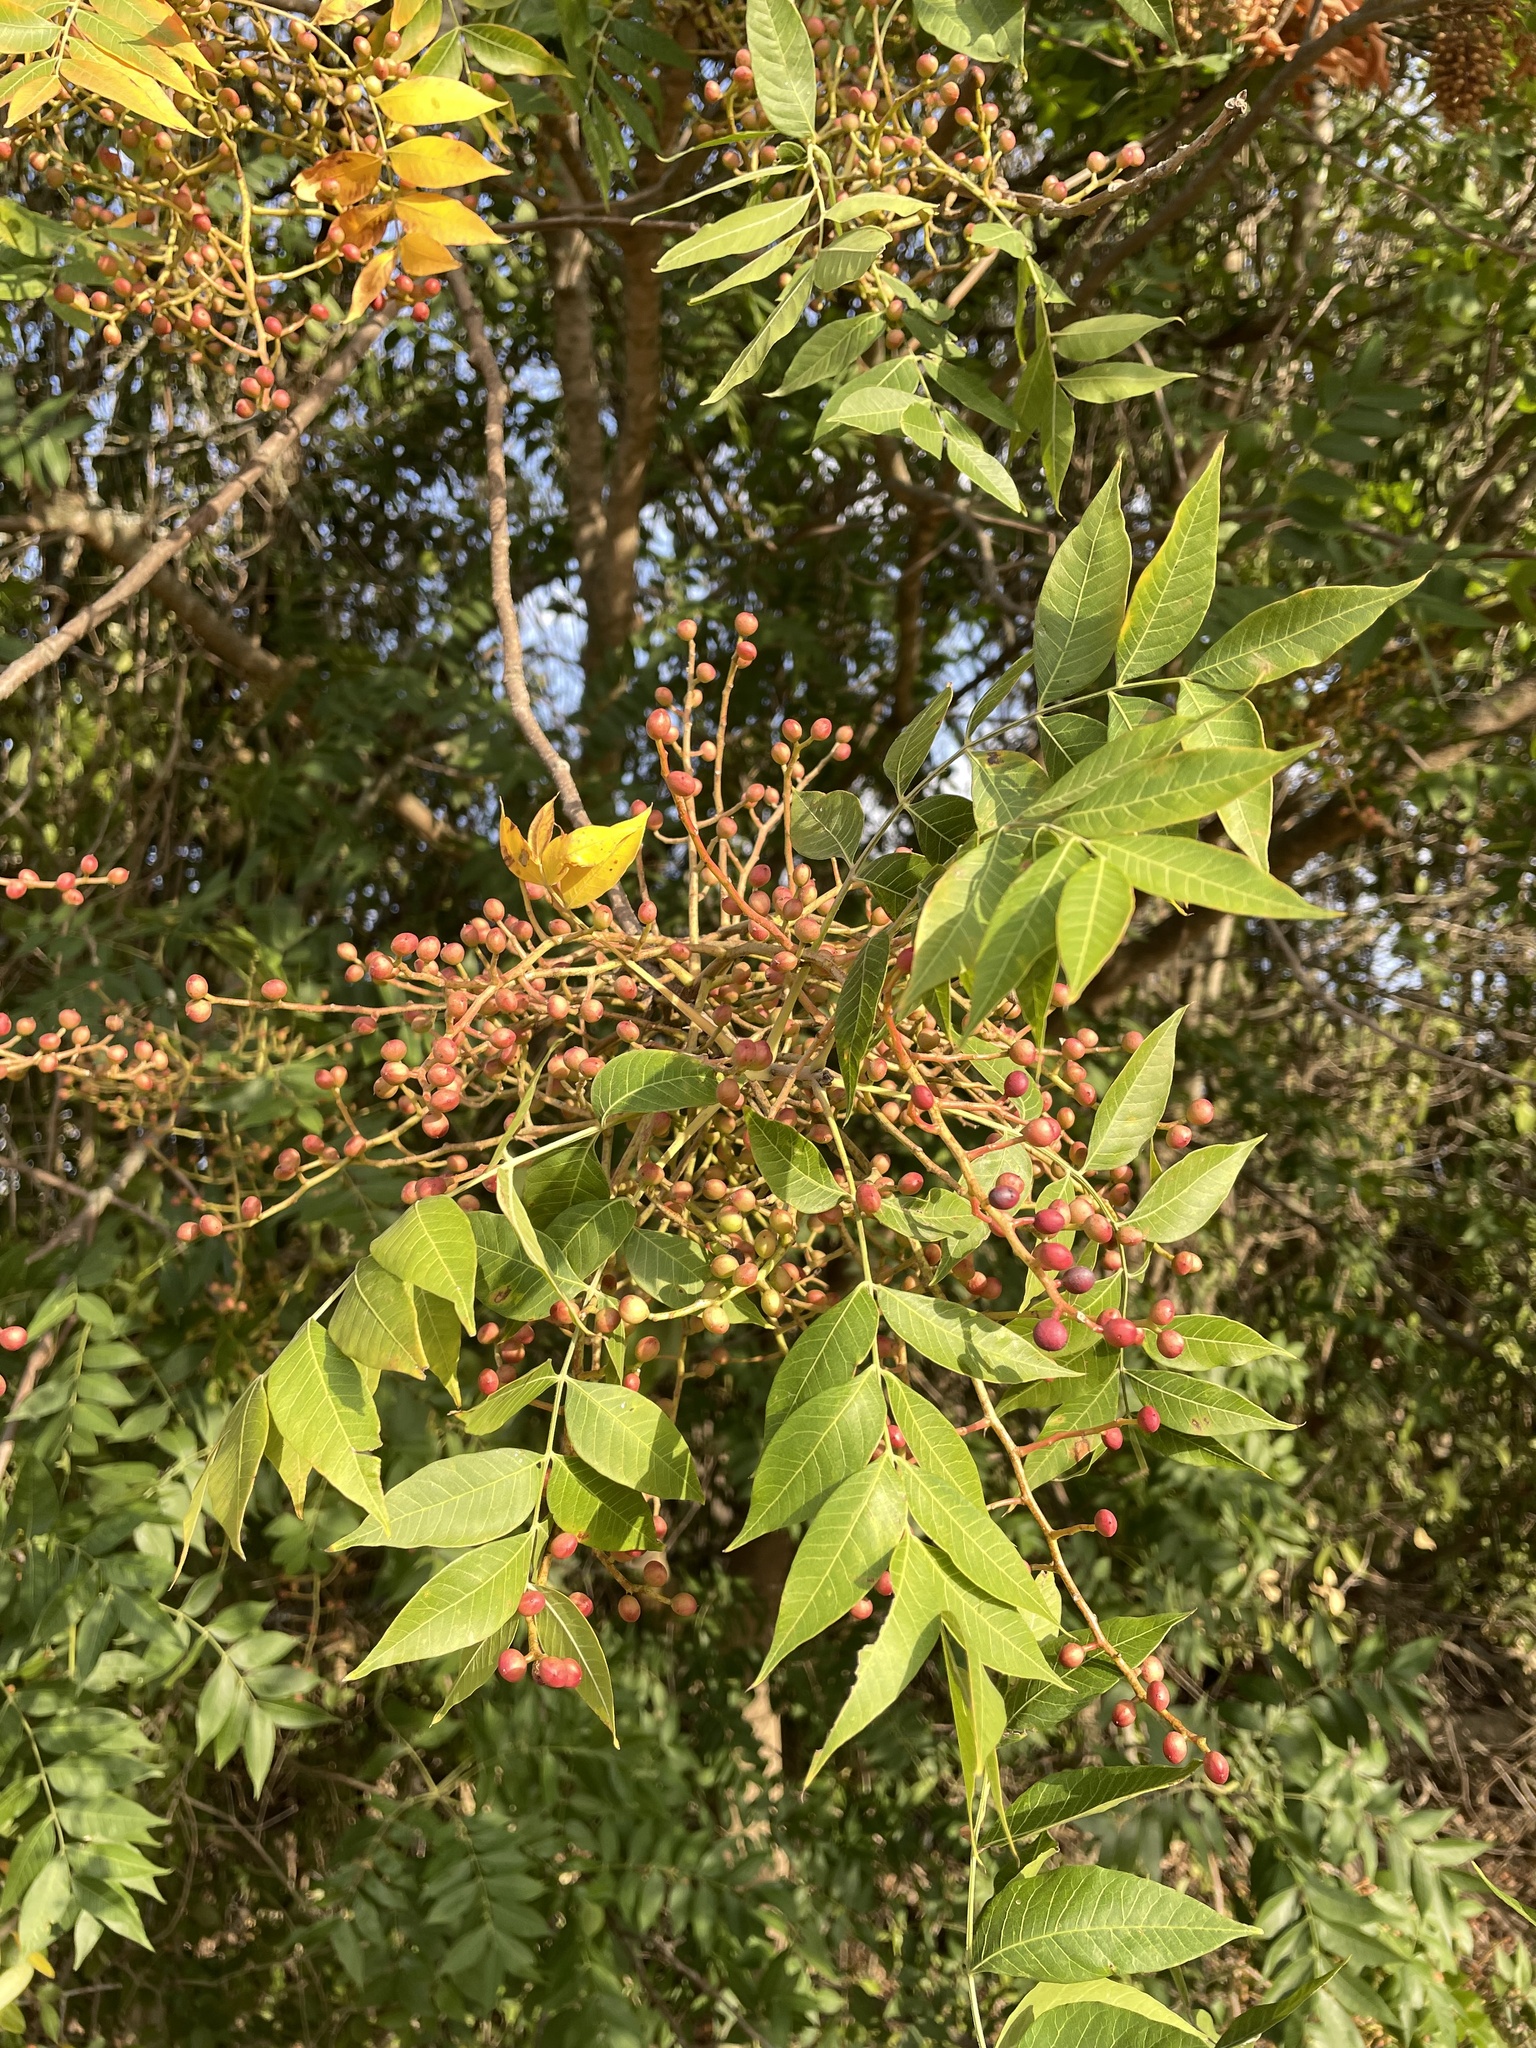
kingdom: Plantae
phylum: Tracheophyta
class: Magnoliopsida
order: Sapindales
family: Anacardiaceae
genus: Pistacia
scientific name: Pistacia chinensis
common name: Chinese pistache
